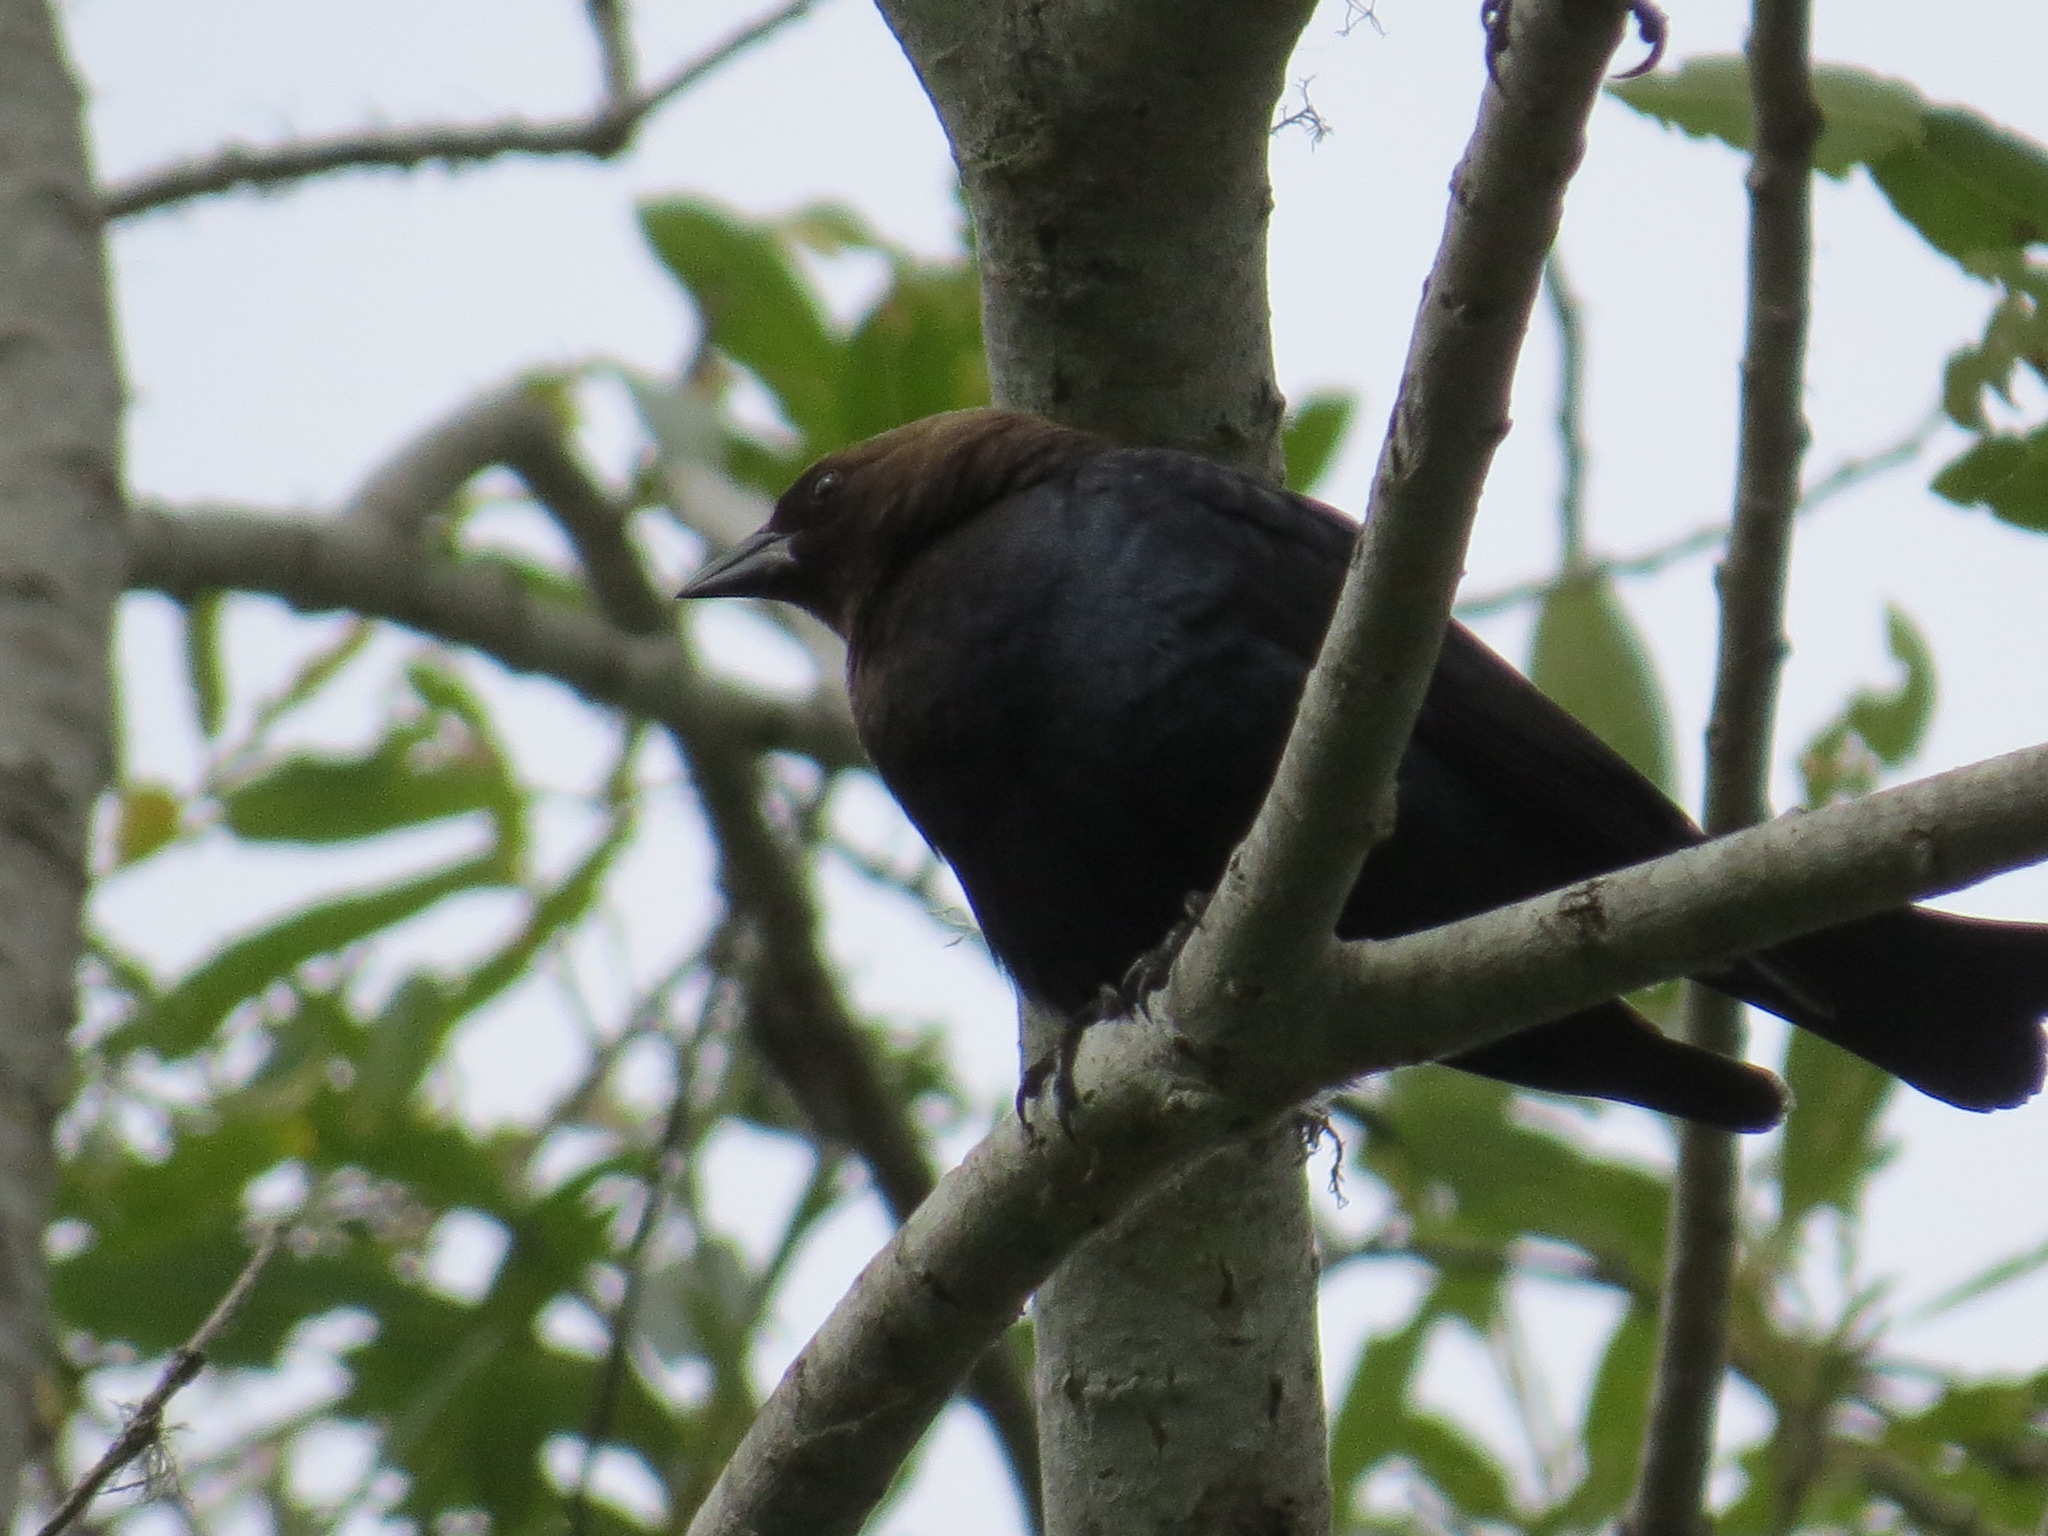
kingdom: Animalia
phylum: Chordata
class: Aves
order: Passeriformes
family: Icteridae
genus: Molothrus
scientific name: Molothrus ater
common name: Brown-headed cowbird
